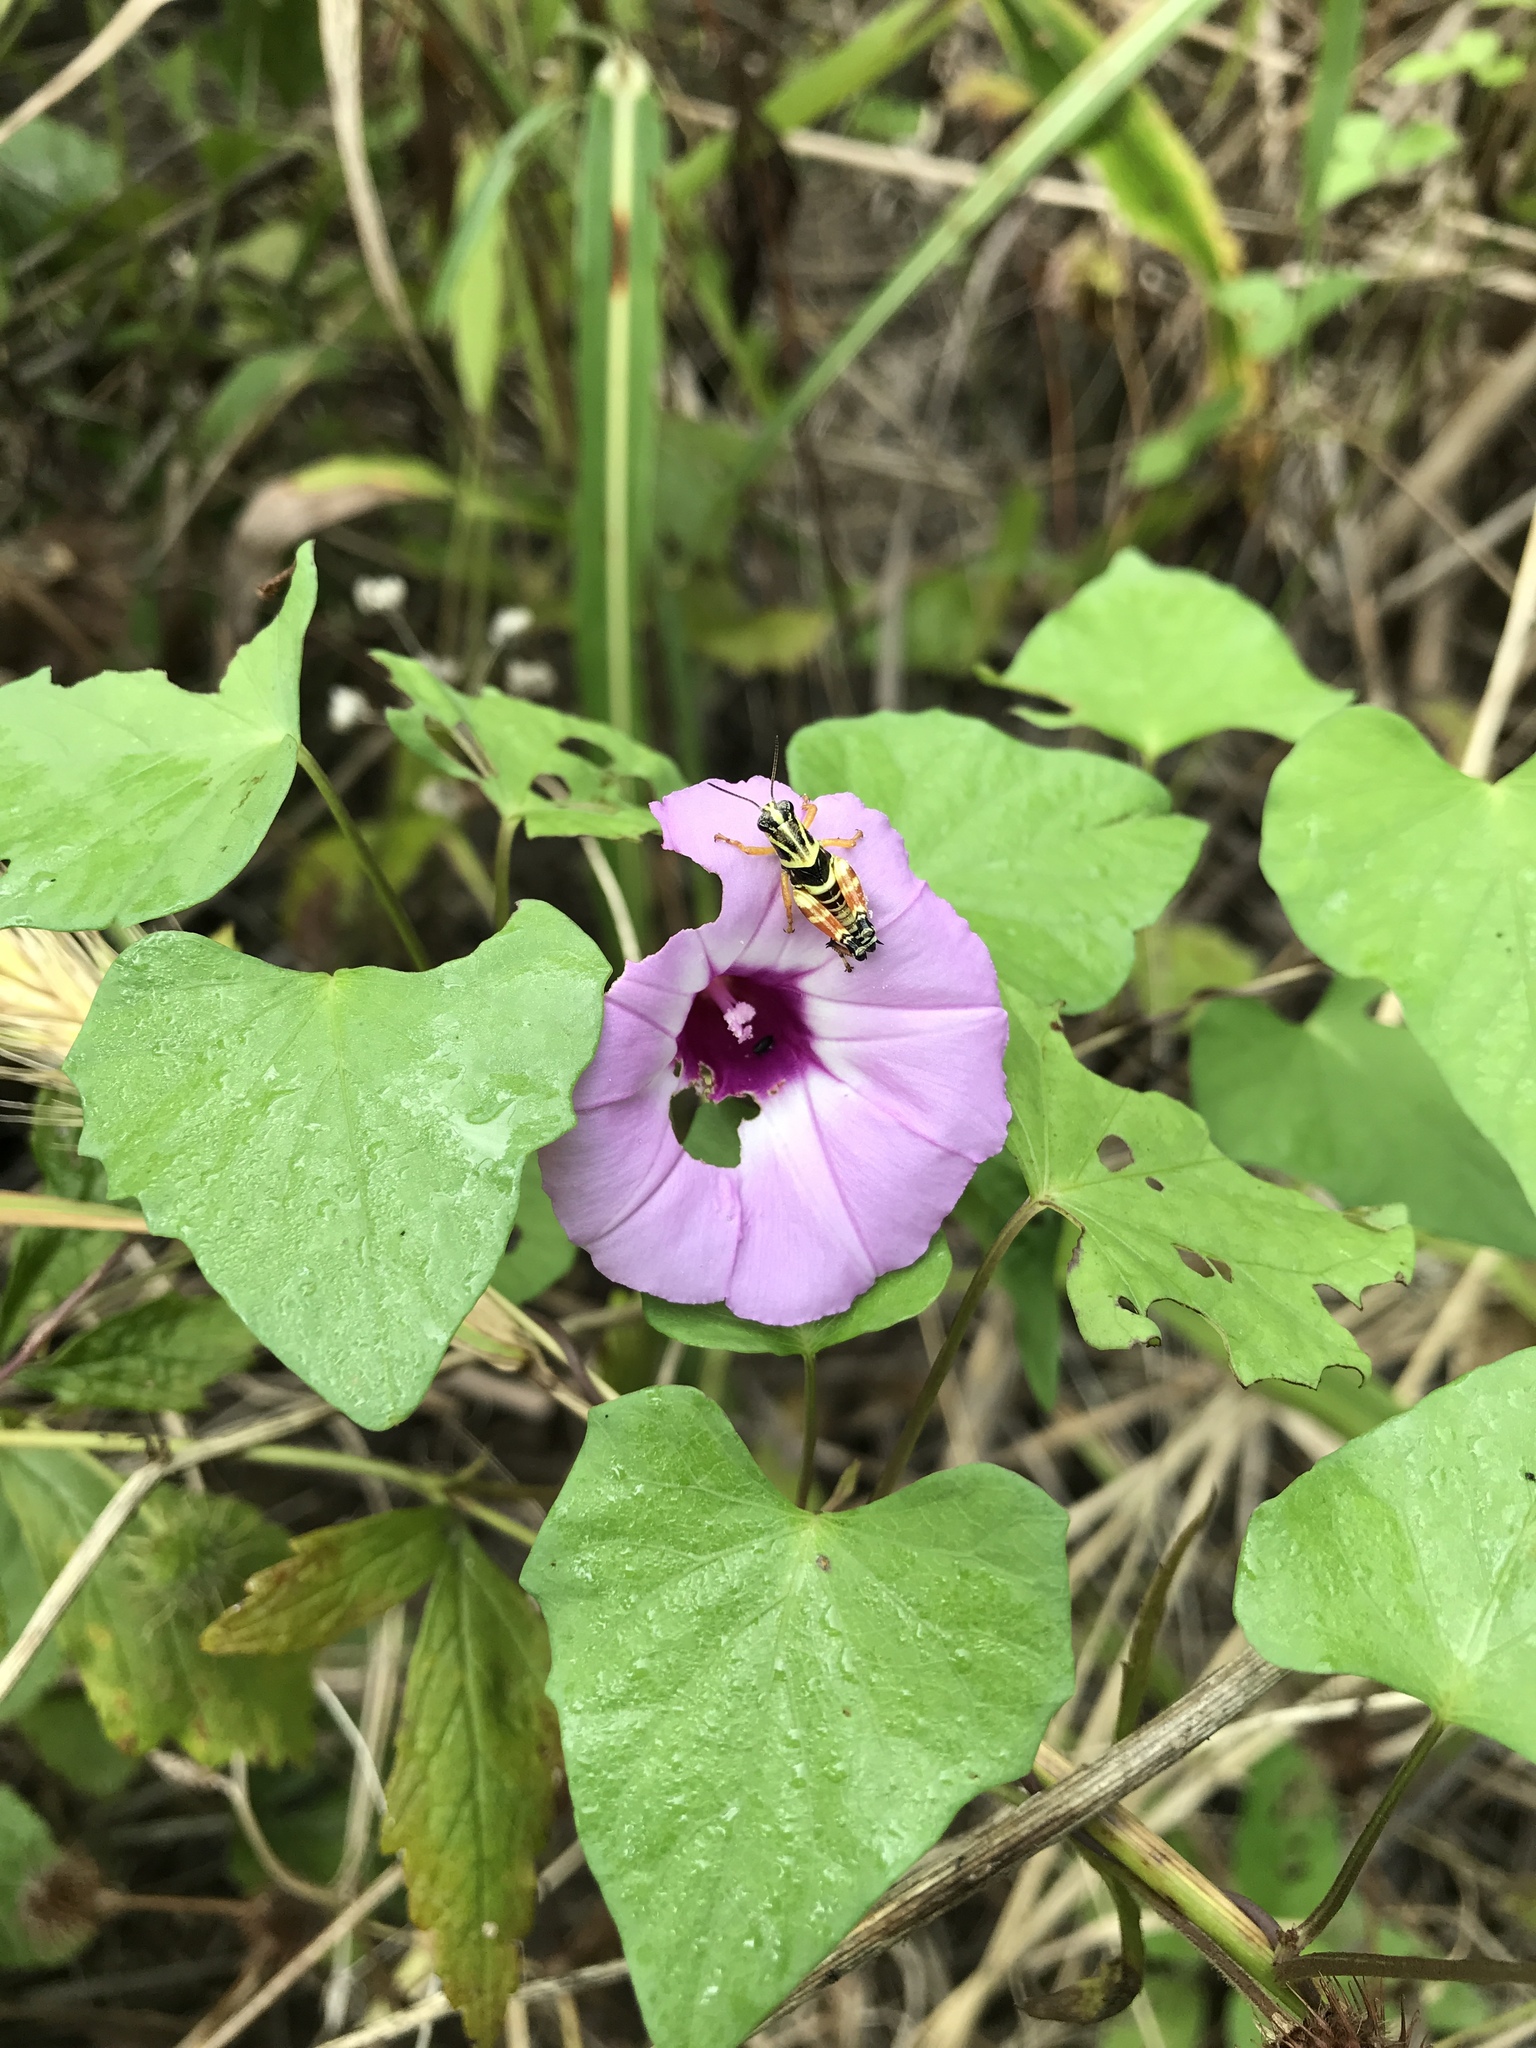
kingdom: Animalia
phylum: Arthropoda
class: Insecta
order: Orthoptera
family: Acrididae
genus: Aidemona
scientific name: Aidemona azteca
